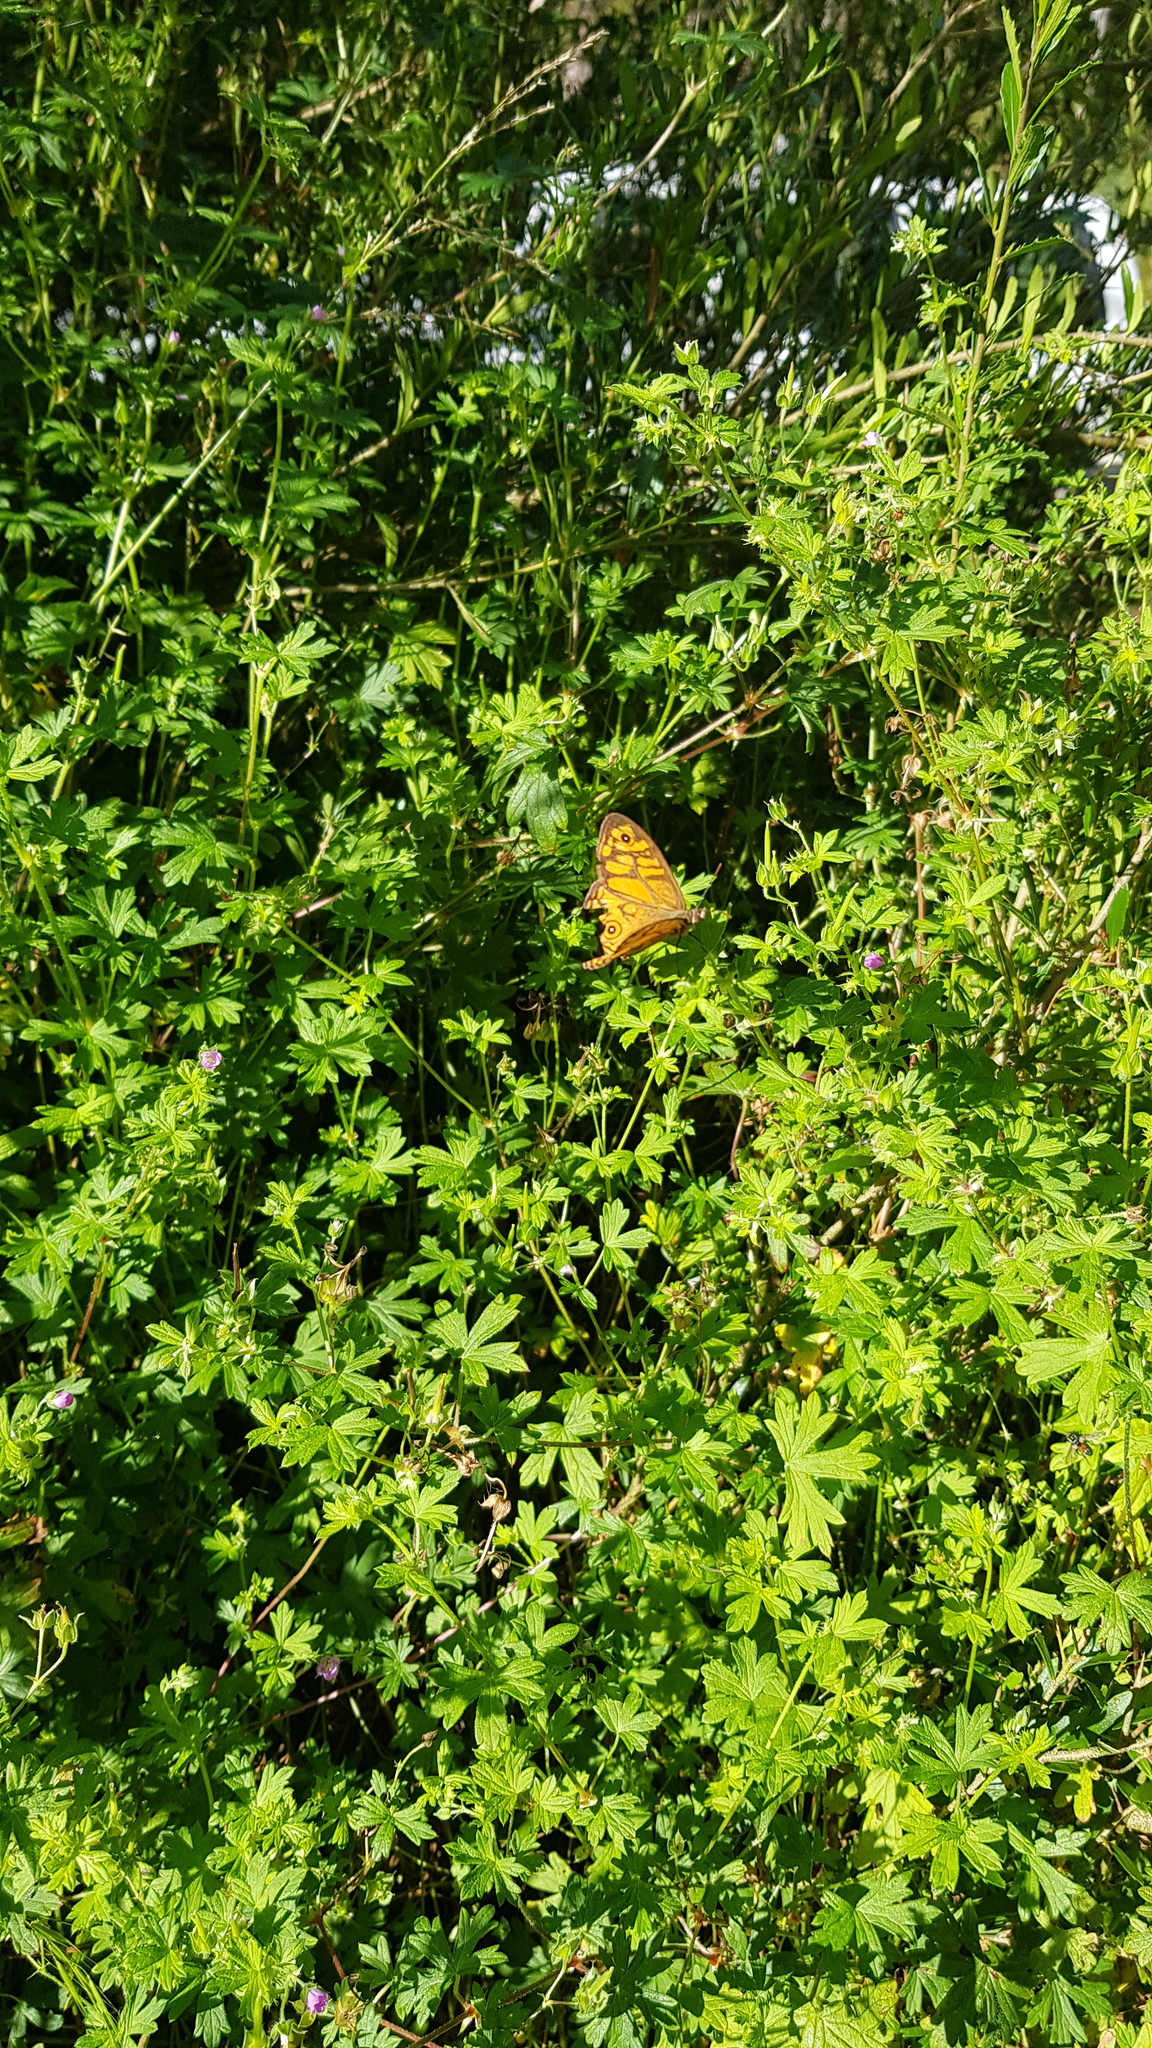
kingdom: Animalia
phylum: Arthropoda
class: Insecta
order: Lepidoptera
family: Nymphalidae
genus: Geitoneura
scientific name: Geitoneura acantha
